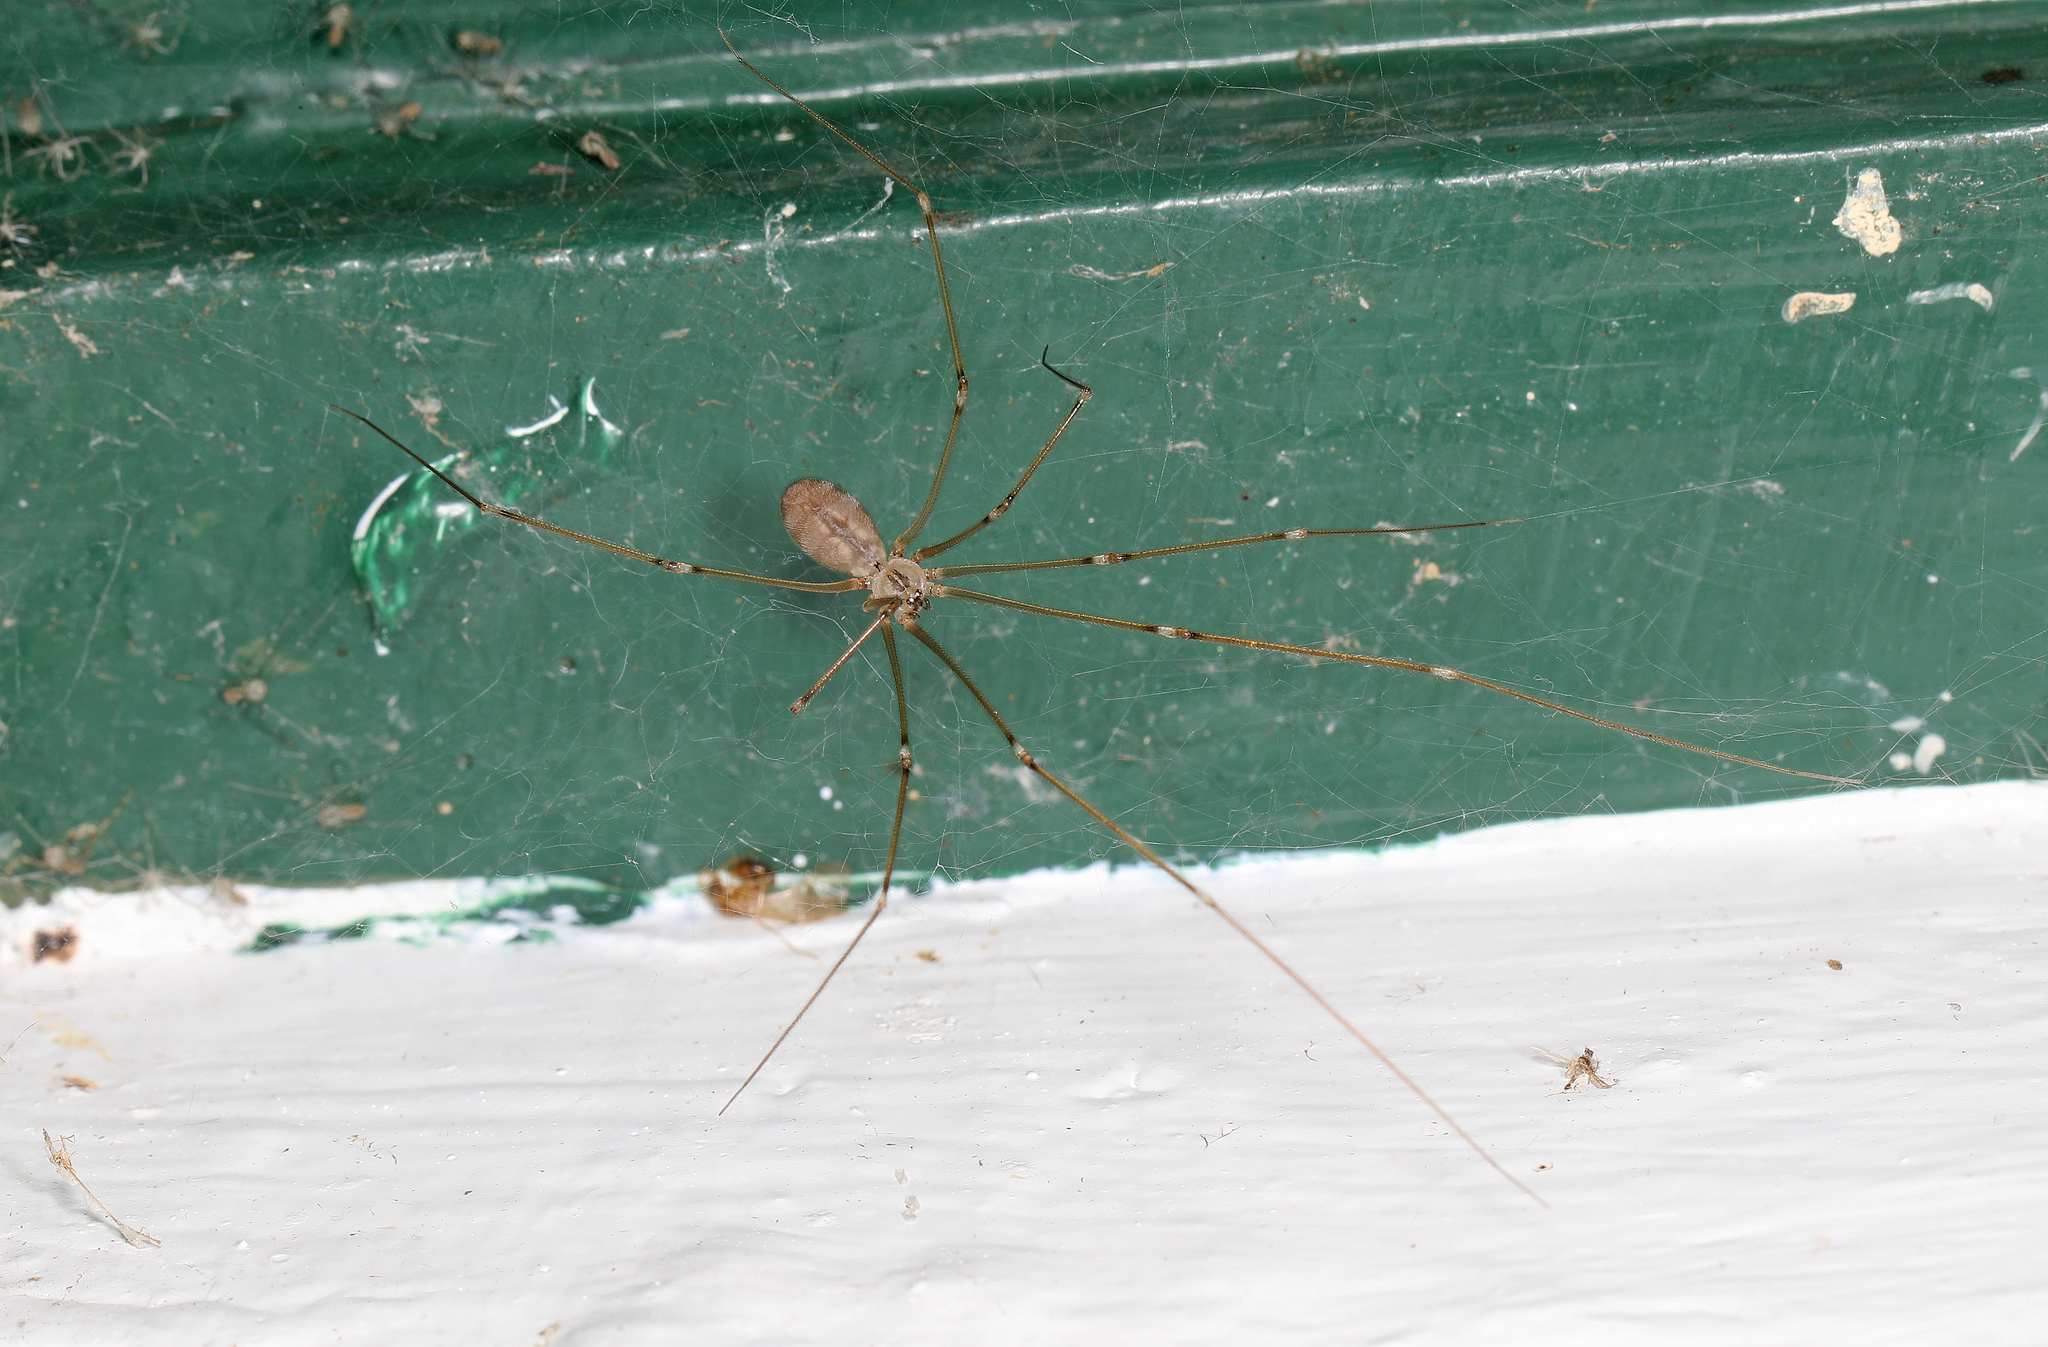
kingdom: Animalia
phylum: Arthropoda
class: Arachnida
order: Araneae
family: Pholcidae
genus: Pholcus
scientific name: Pholcus phalangioides
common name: Longbodied cellar spider
